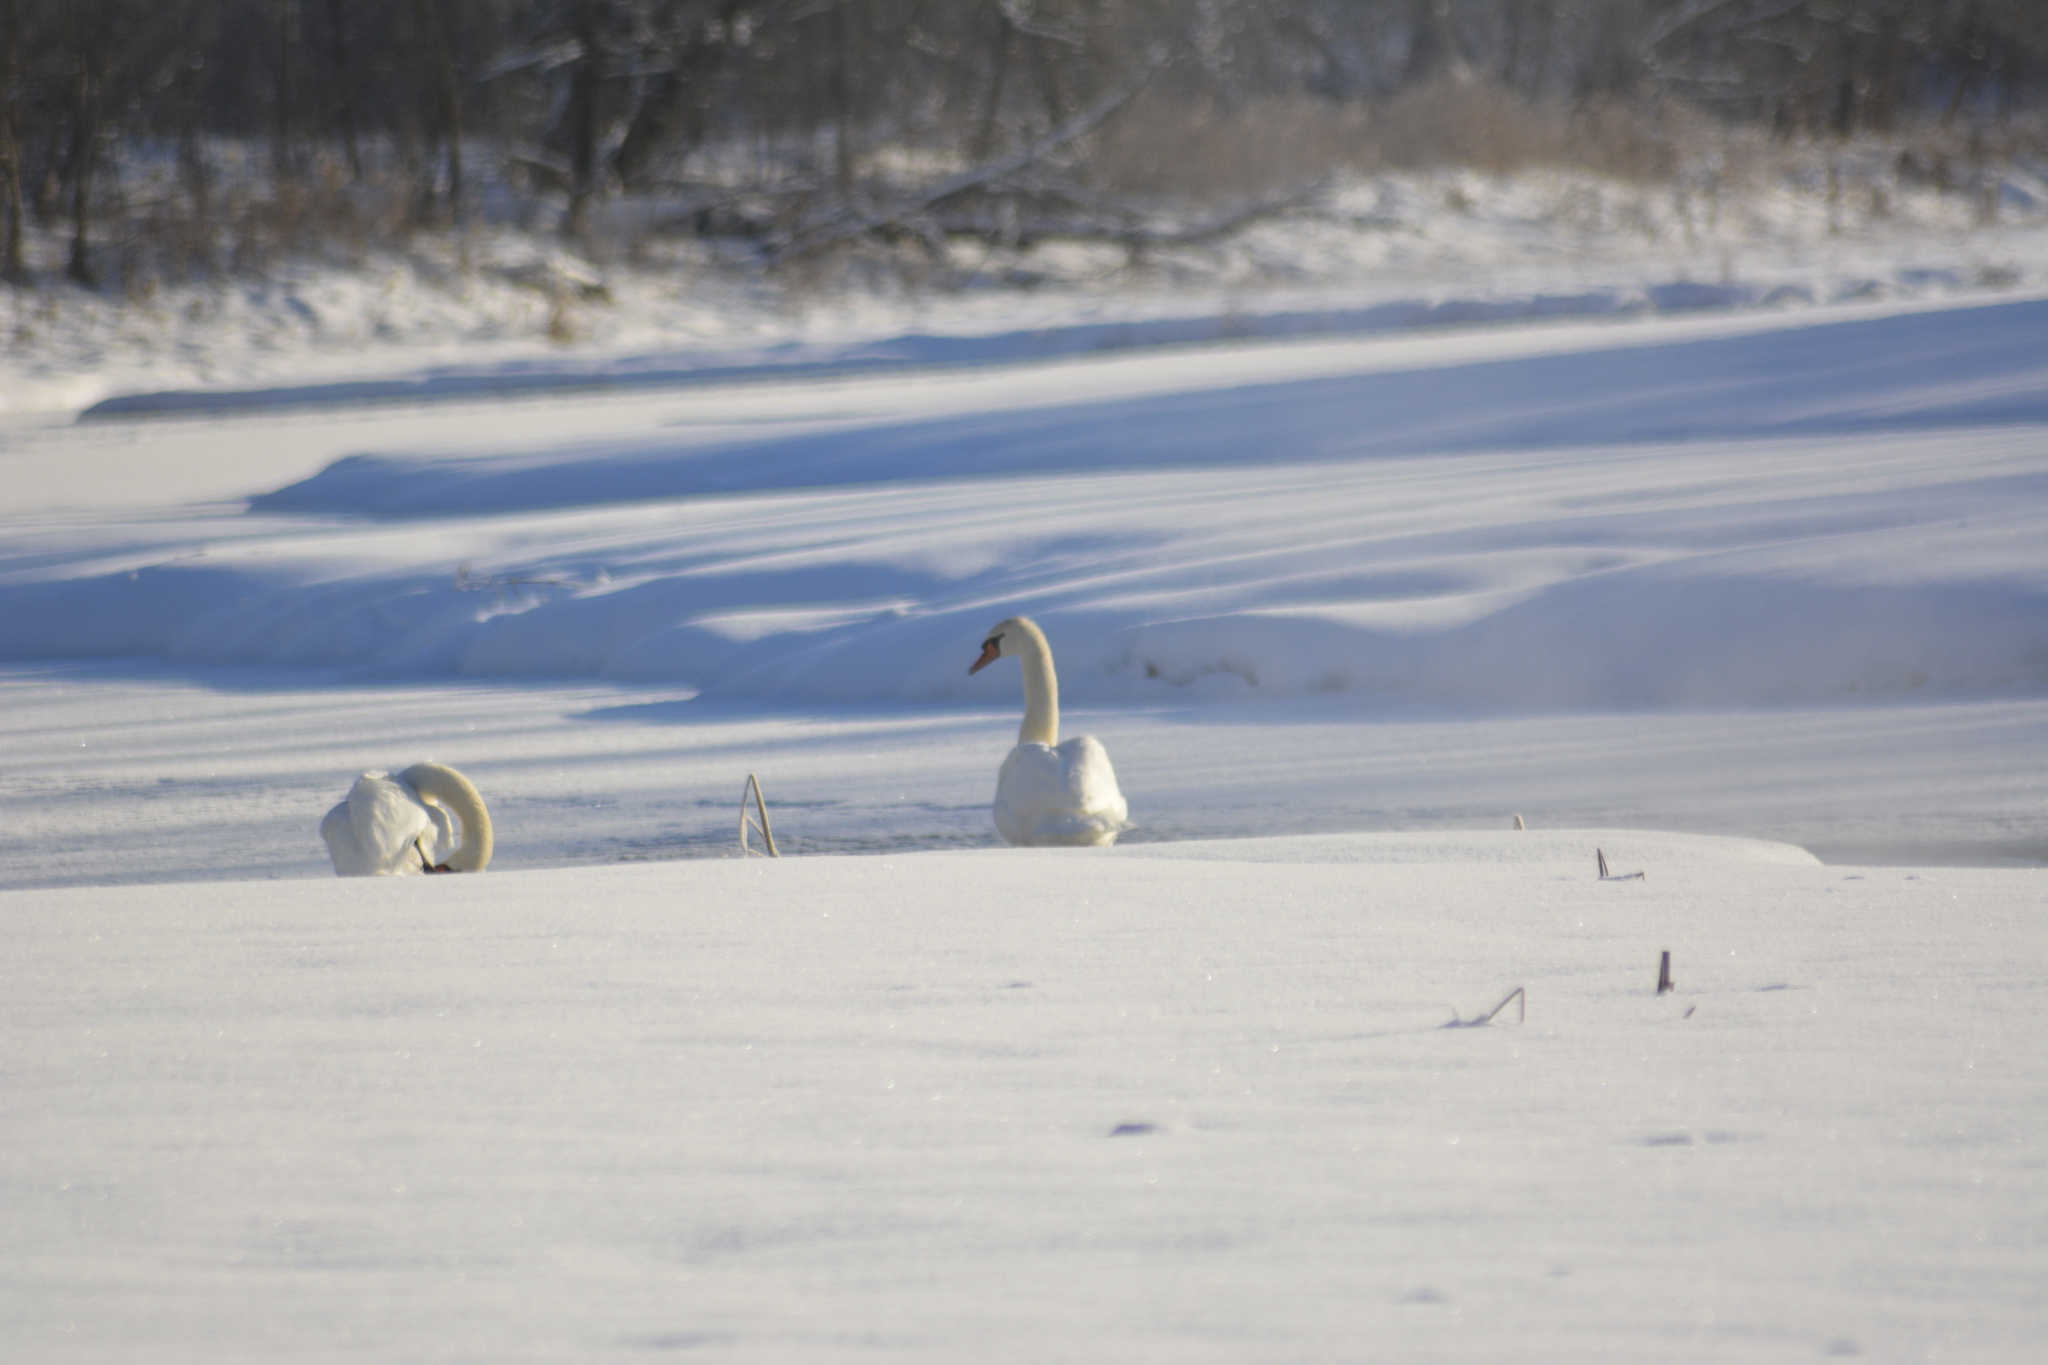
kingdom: Animalia
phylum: Chordata
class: Aves
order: Anseriformes
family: Anatidae
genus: Cygnus
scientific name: Cygnus olor
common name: Mute swan
